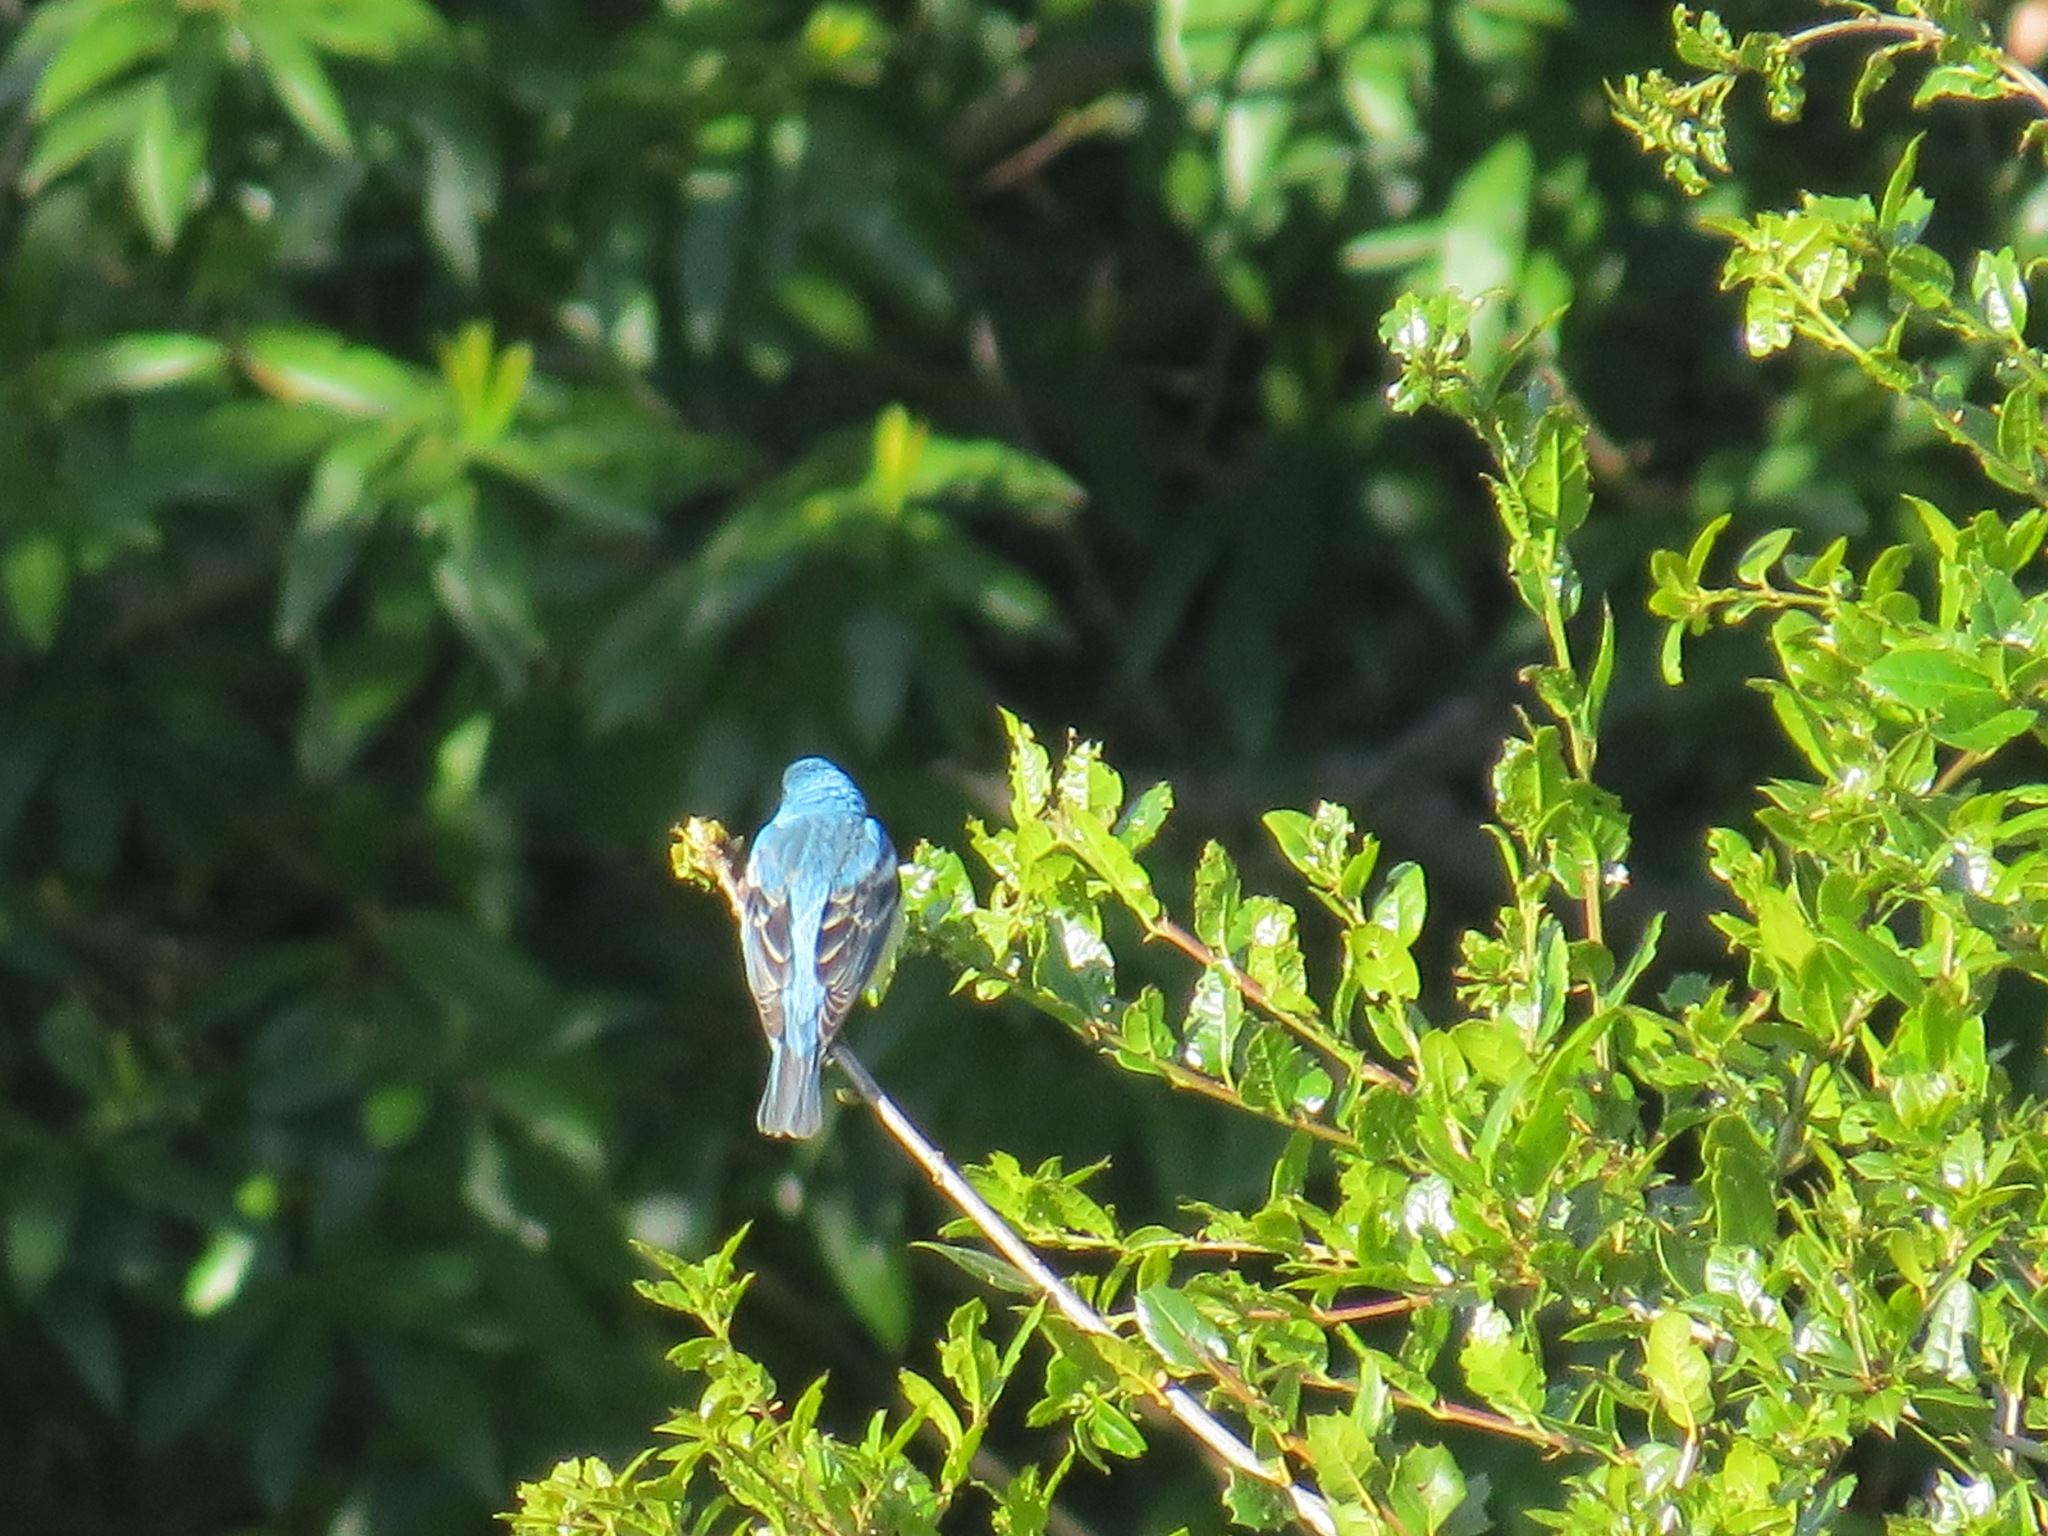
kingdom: Animalia
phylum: Chordata
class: Aves
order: Passeriformes
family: Cardinalidae
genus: Passerina
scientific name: Passerina amoena
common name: Lazuli bunting
